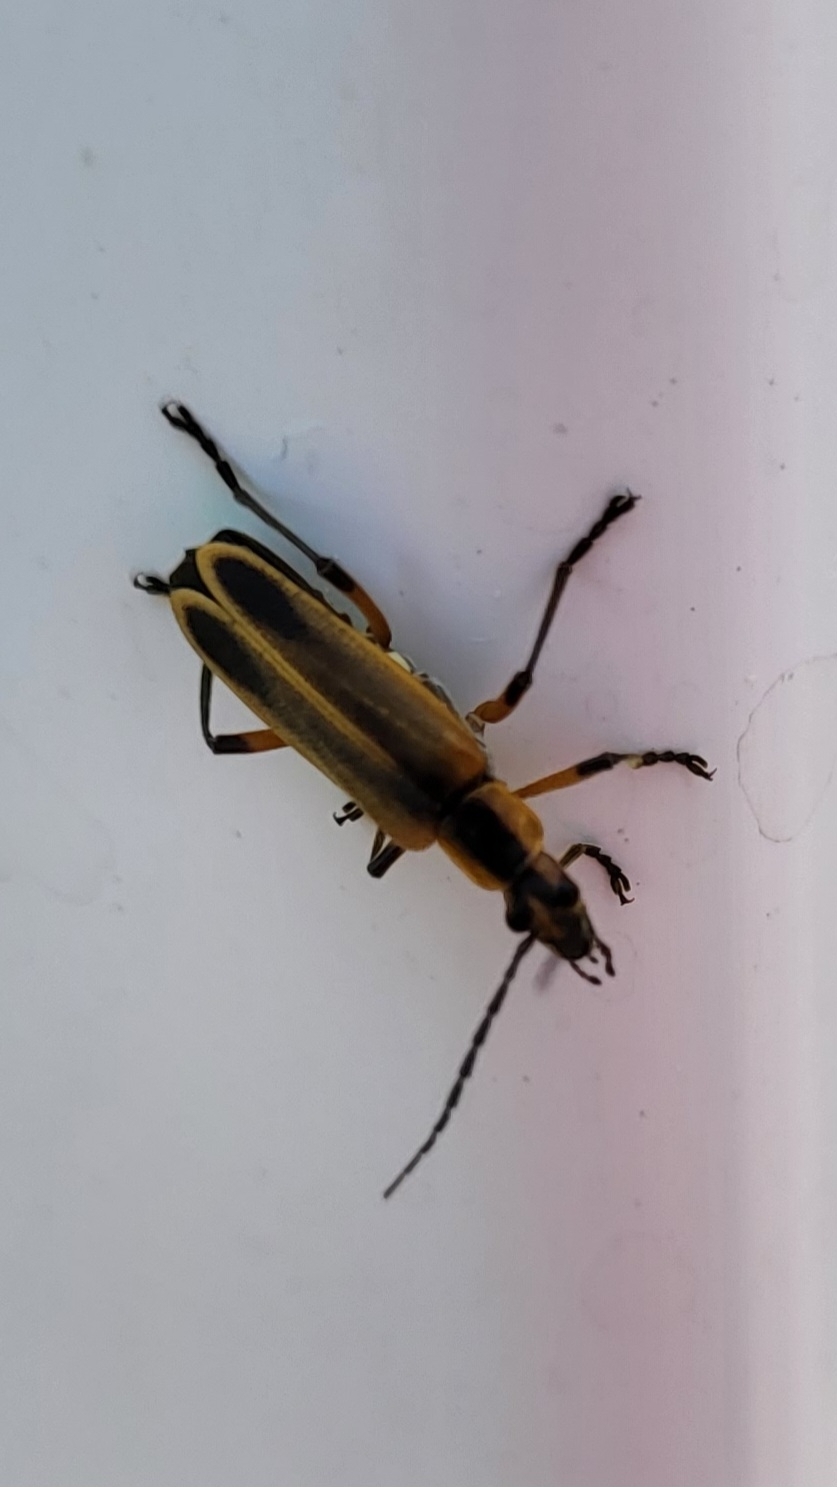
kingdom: Animalia
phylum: Arthropoda
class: Insecta
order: Coleoptera
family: Cantharidae
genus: Chauliognathus
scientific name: Chauliognathus marginatus
